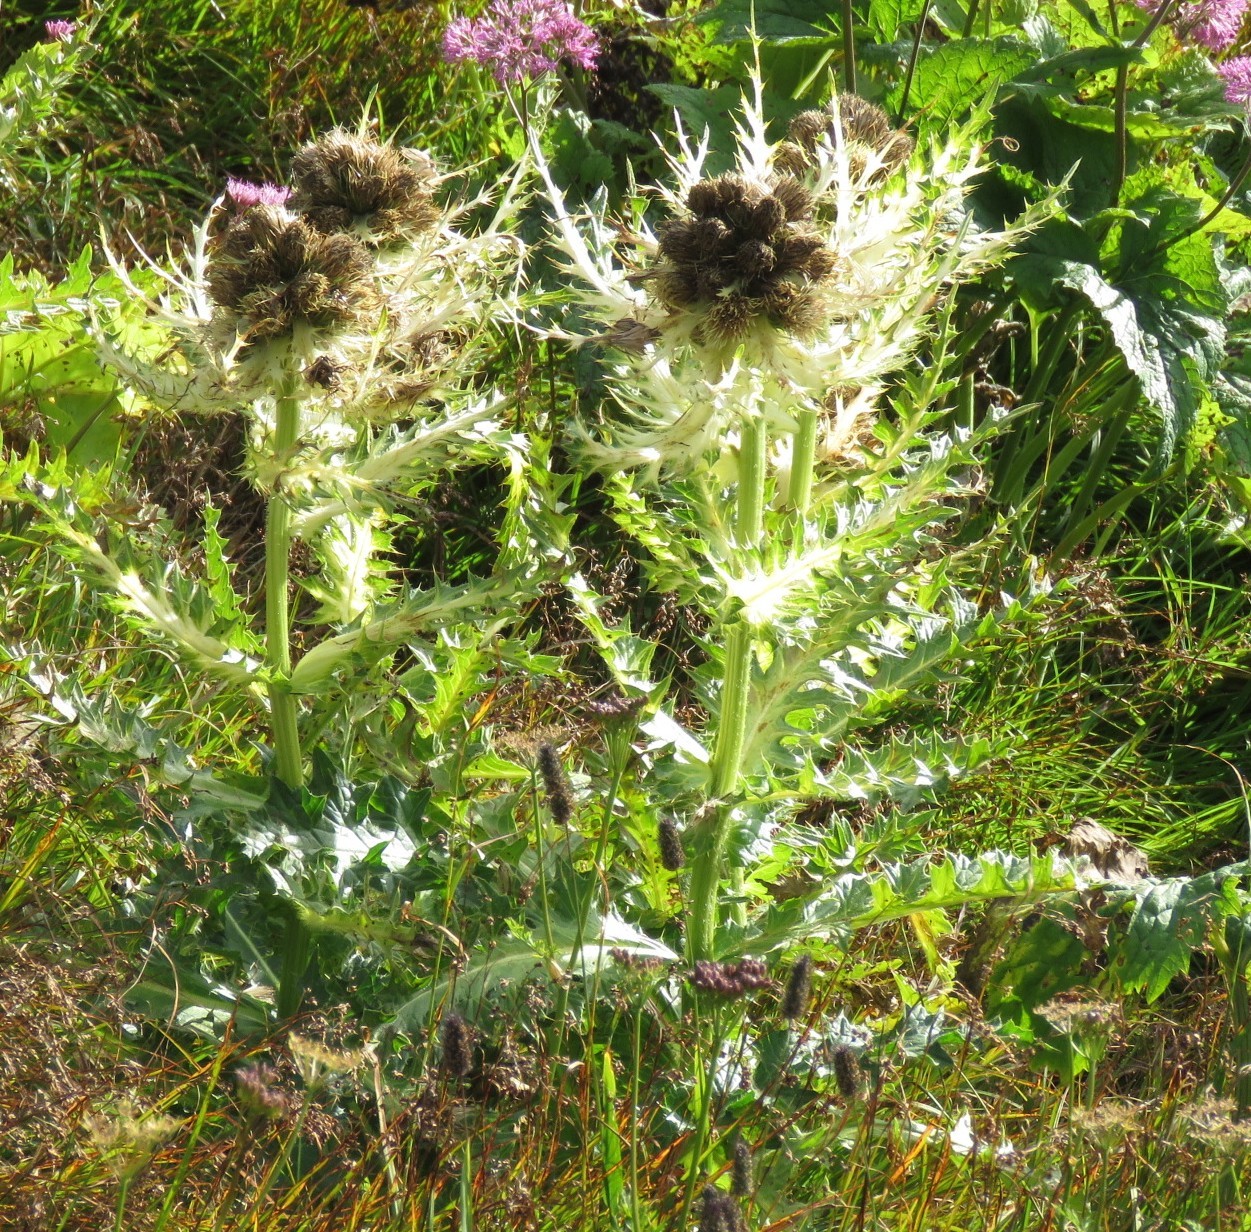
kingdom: Plantae
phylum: Tracheophyta
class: Magnoliopsida
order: Asterales
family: Asteraceae
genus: Cirsium
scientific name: Cirsium spinosissimum
